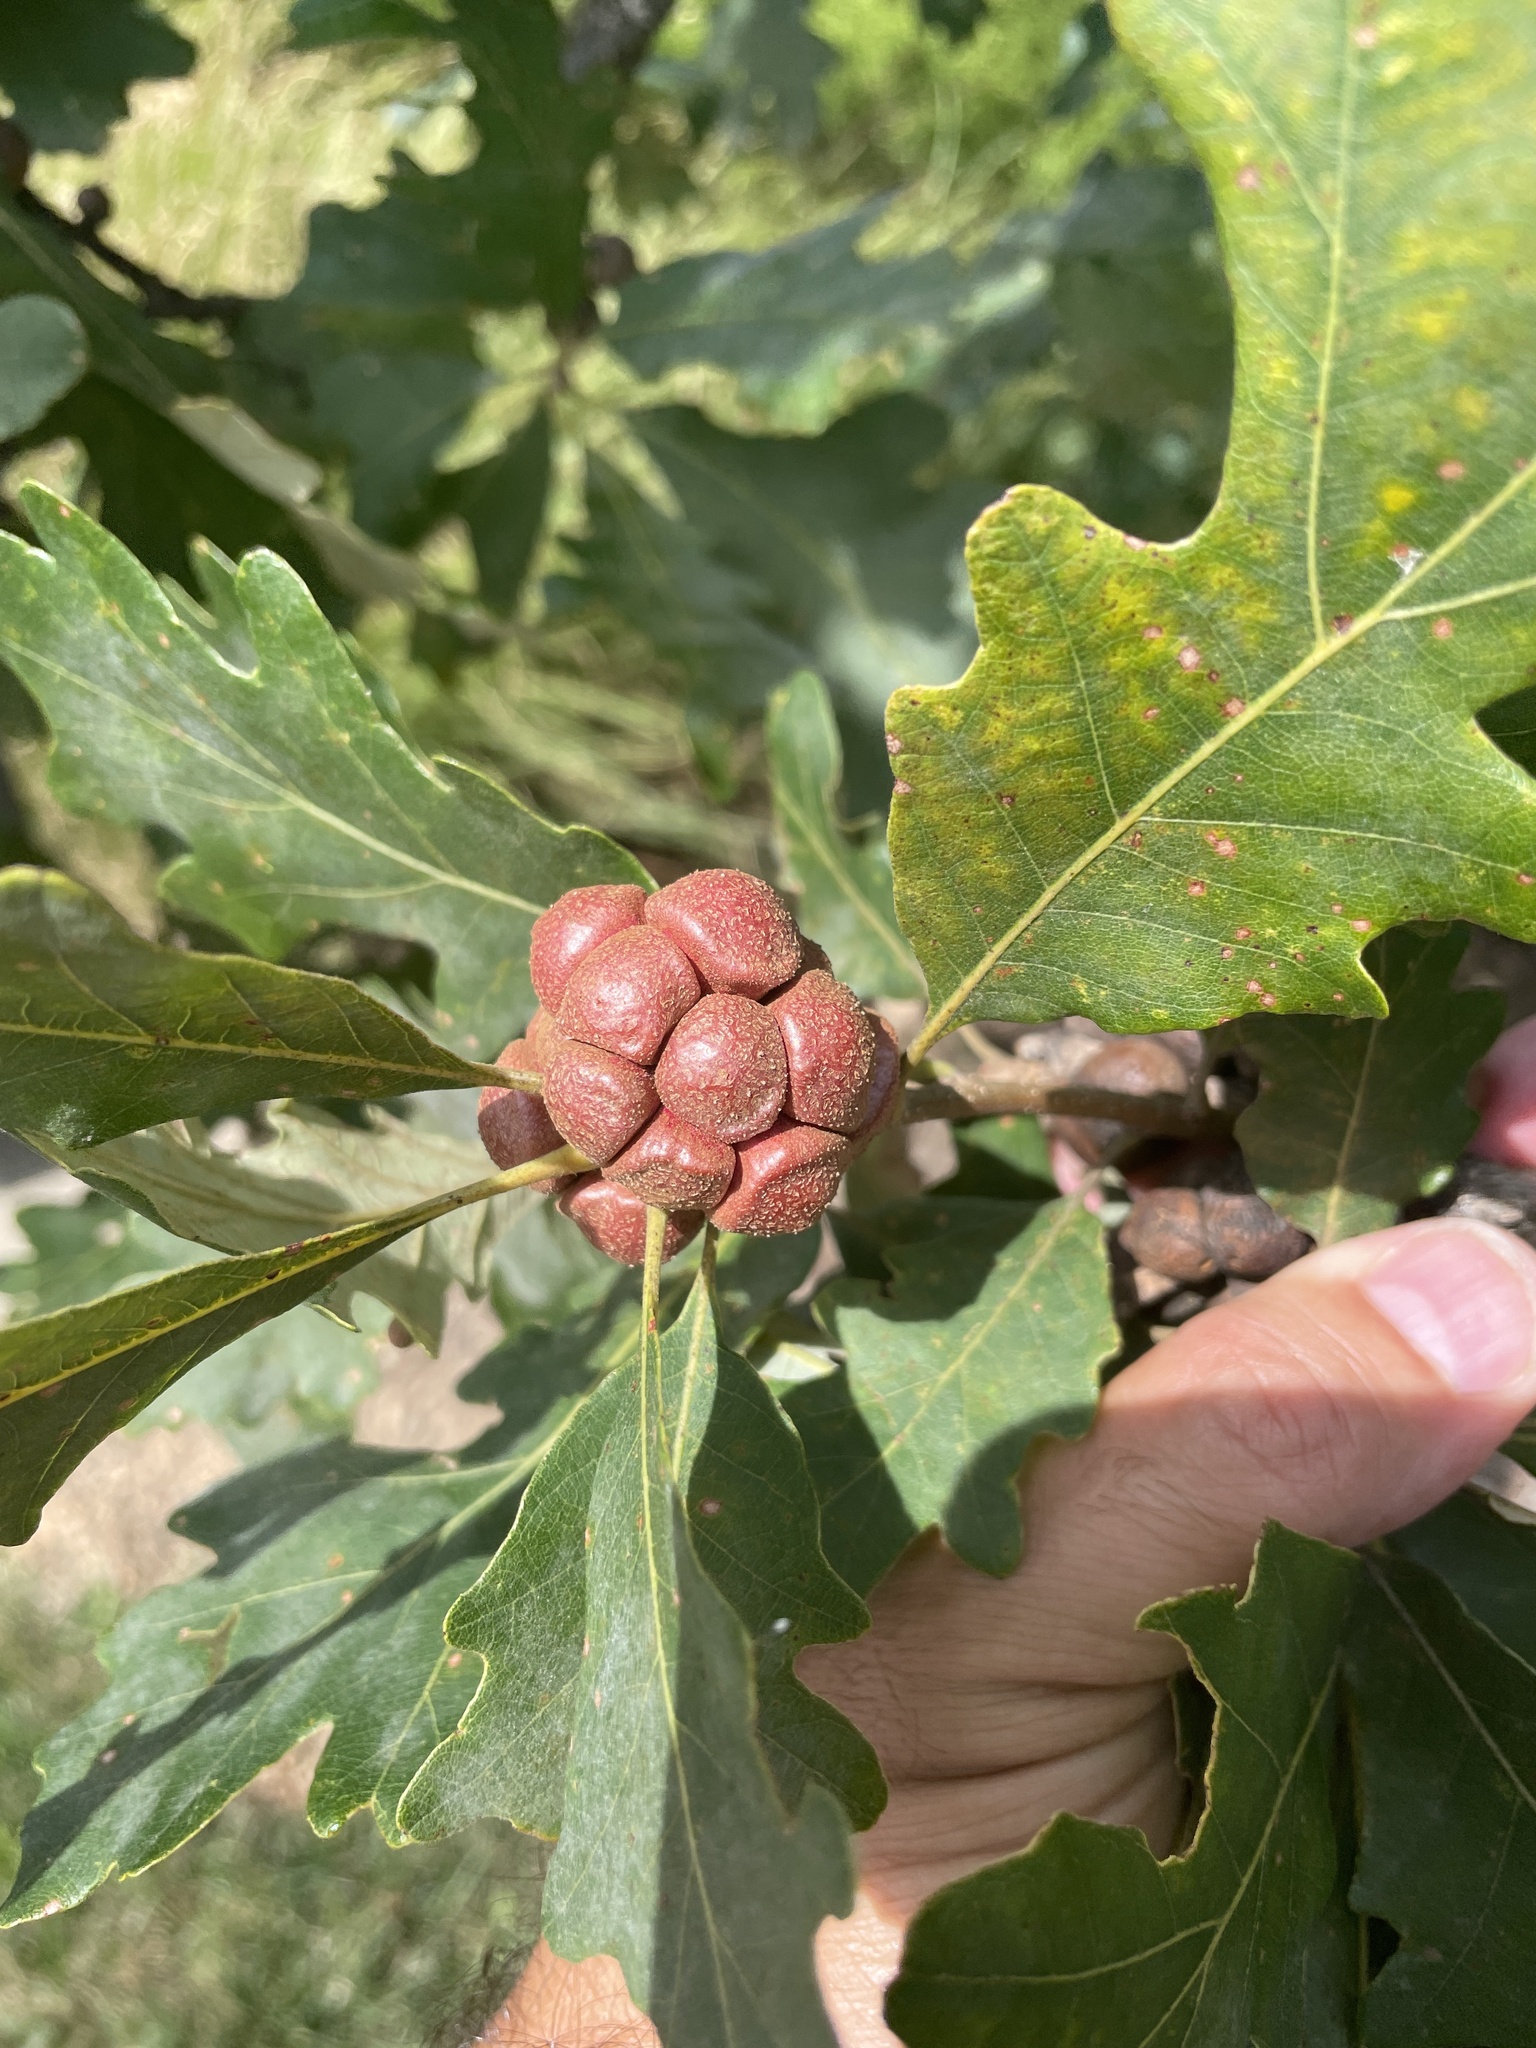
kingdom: Animalia
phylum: Arthropoda
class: Insecta
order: Hymenoptera
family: Cynipidae
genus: Andricus
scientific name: Andricus
